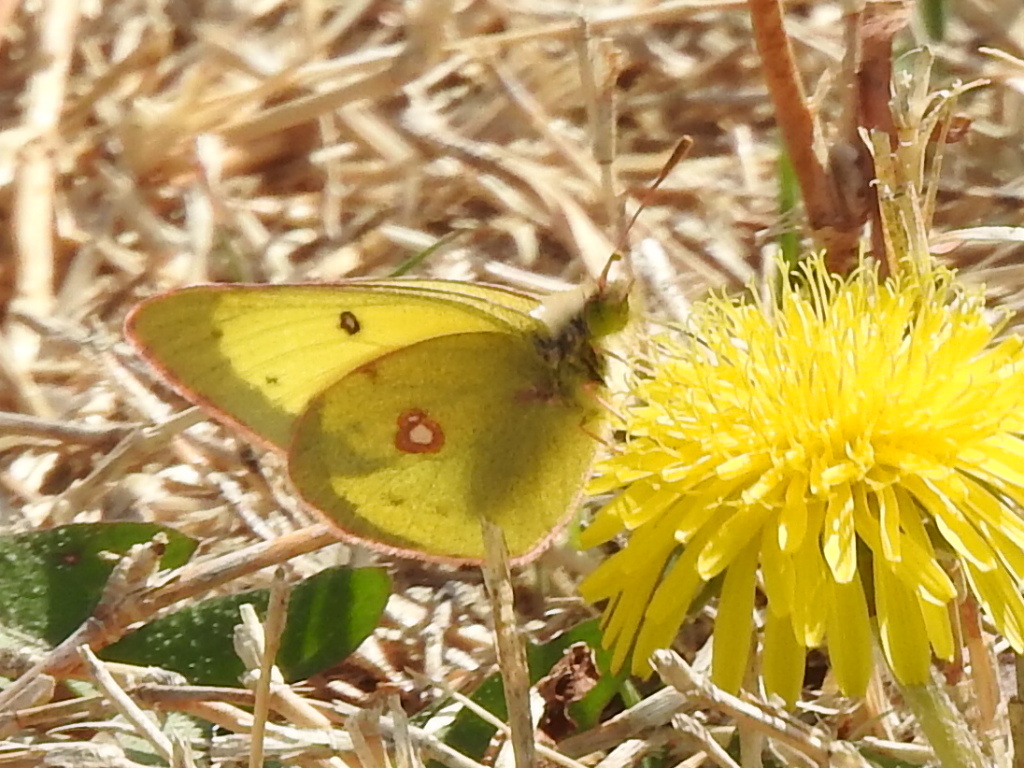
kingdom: Animalia
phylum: Arthropoda
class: Insecta
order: Lepidoptera
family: Pieridae
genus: Colias
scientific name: Colias eurytheme
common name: Alfalfa butterfly
